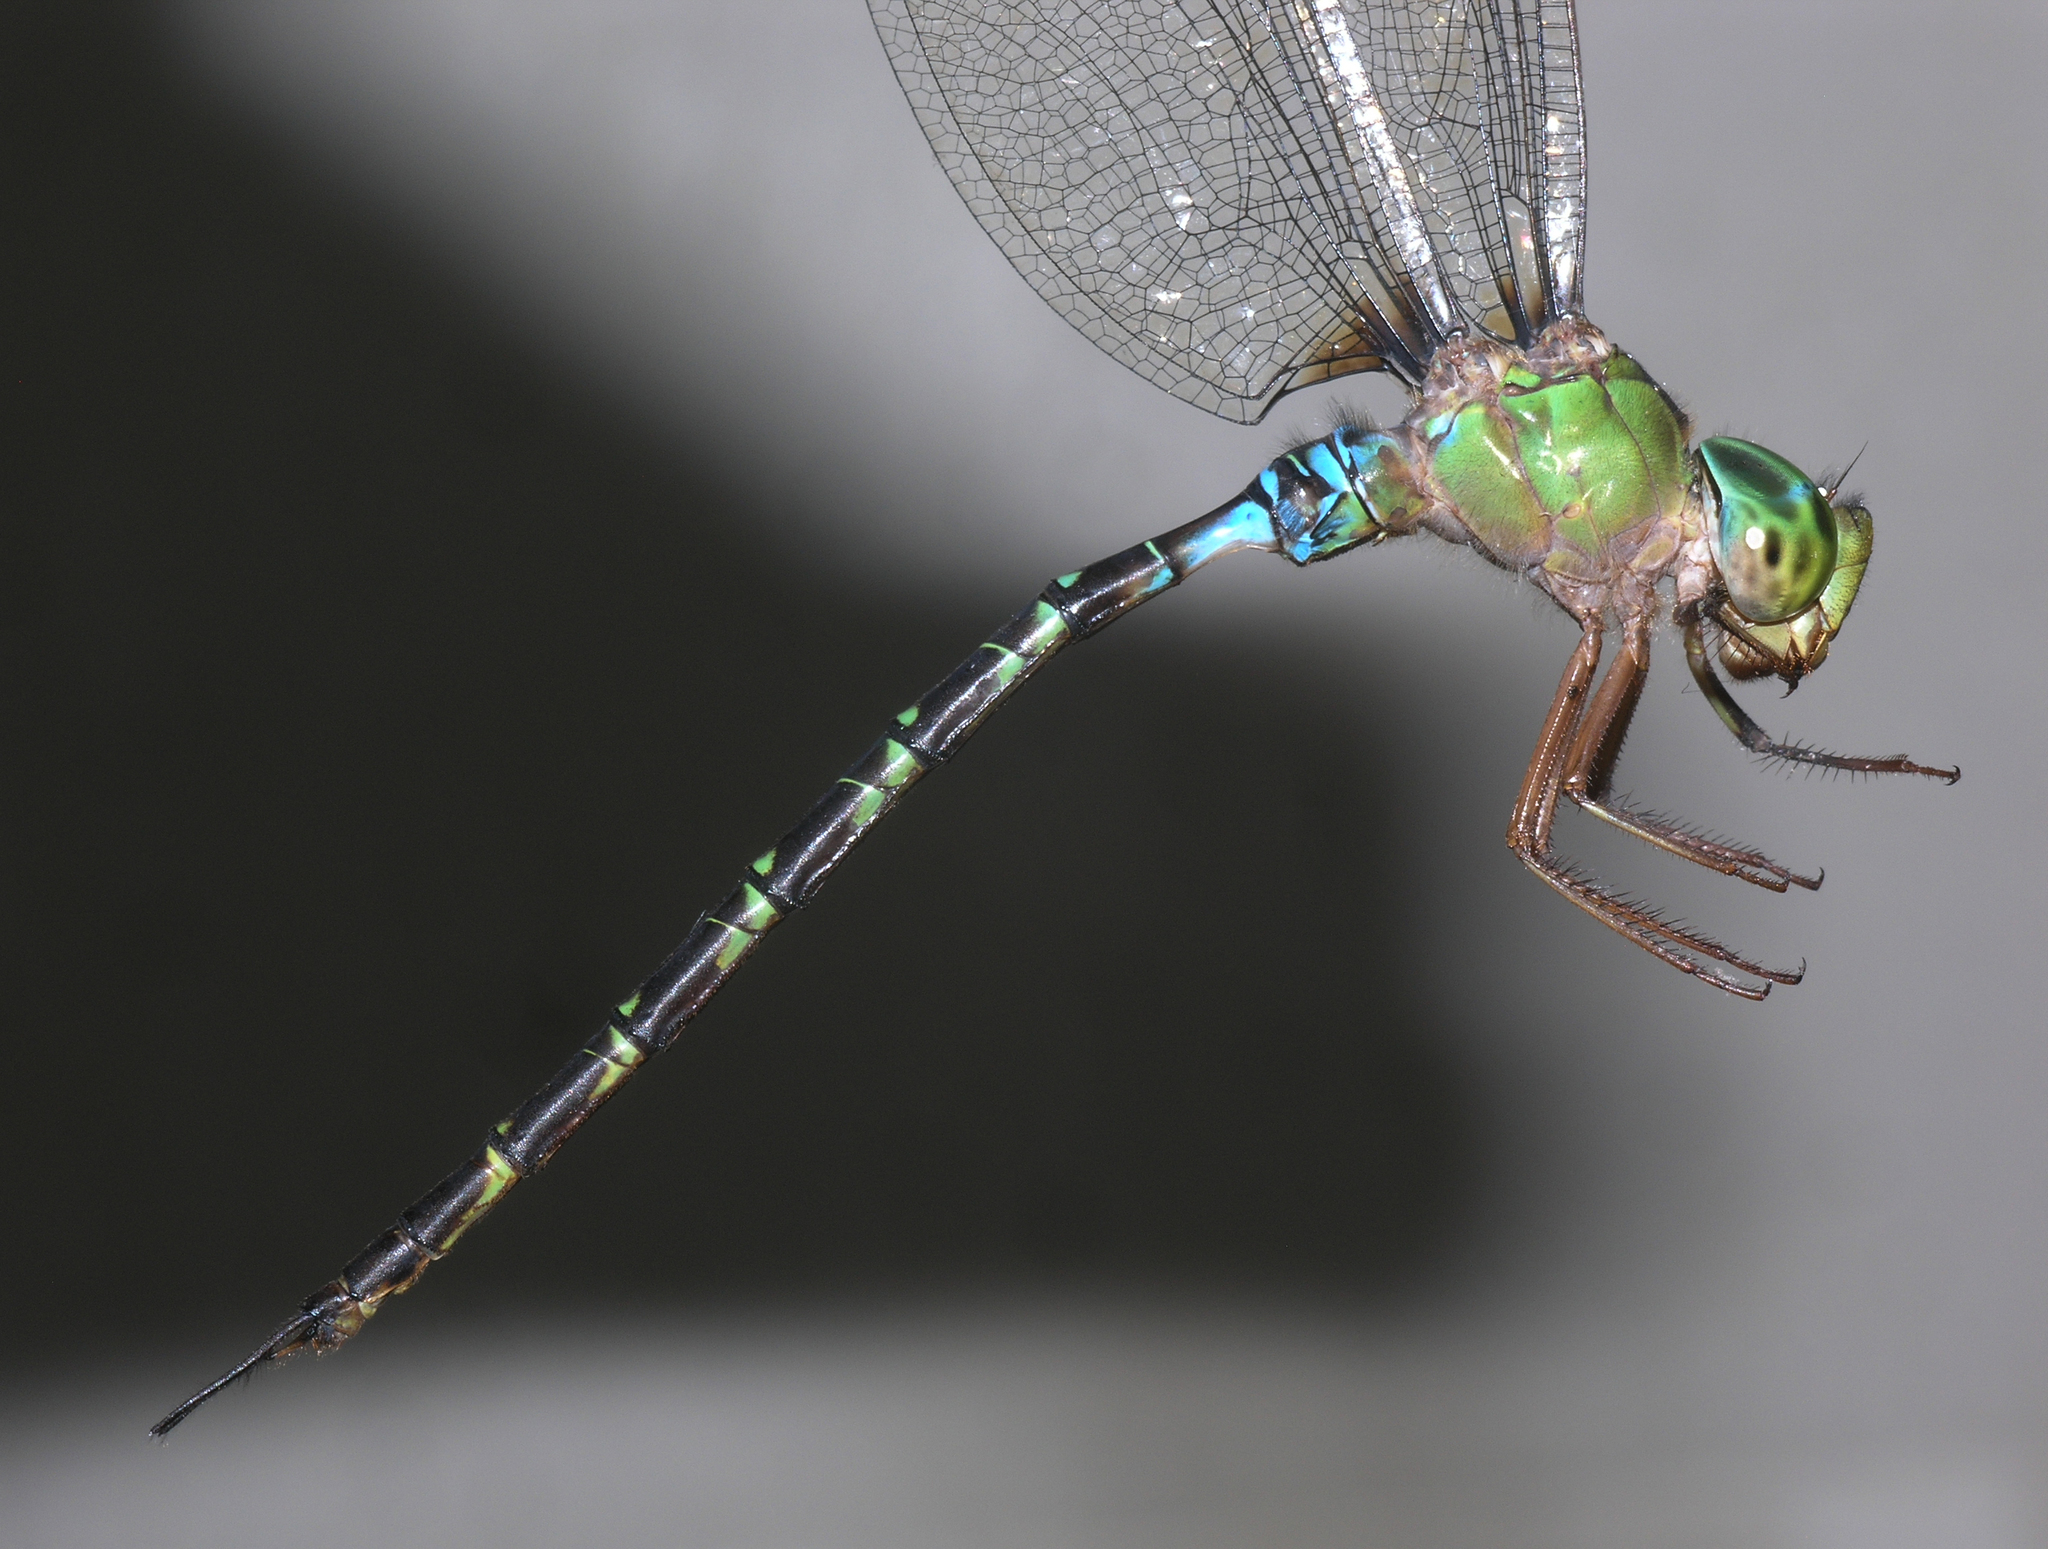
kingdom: Animalia
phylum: Arthropoda
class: Insecta
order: Odonata
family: Aeshnidae
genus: Gynacantha
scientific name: Gynacantha subinterrupta
